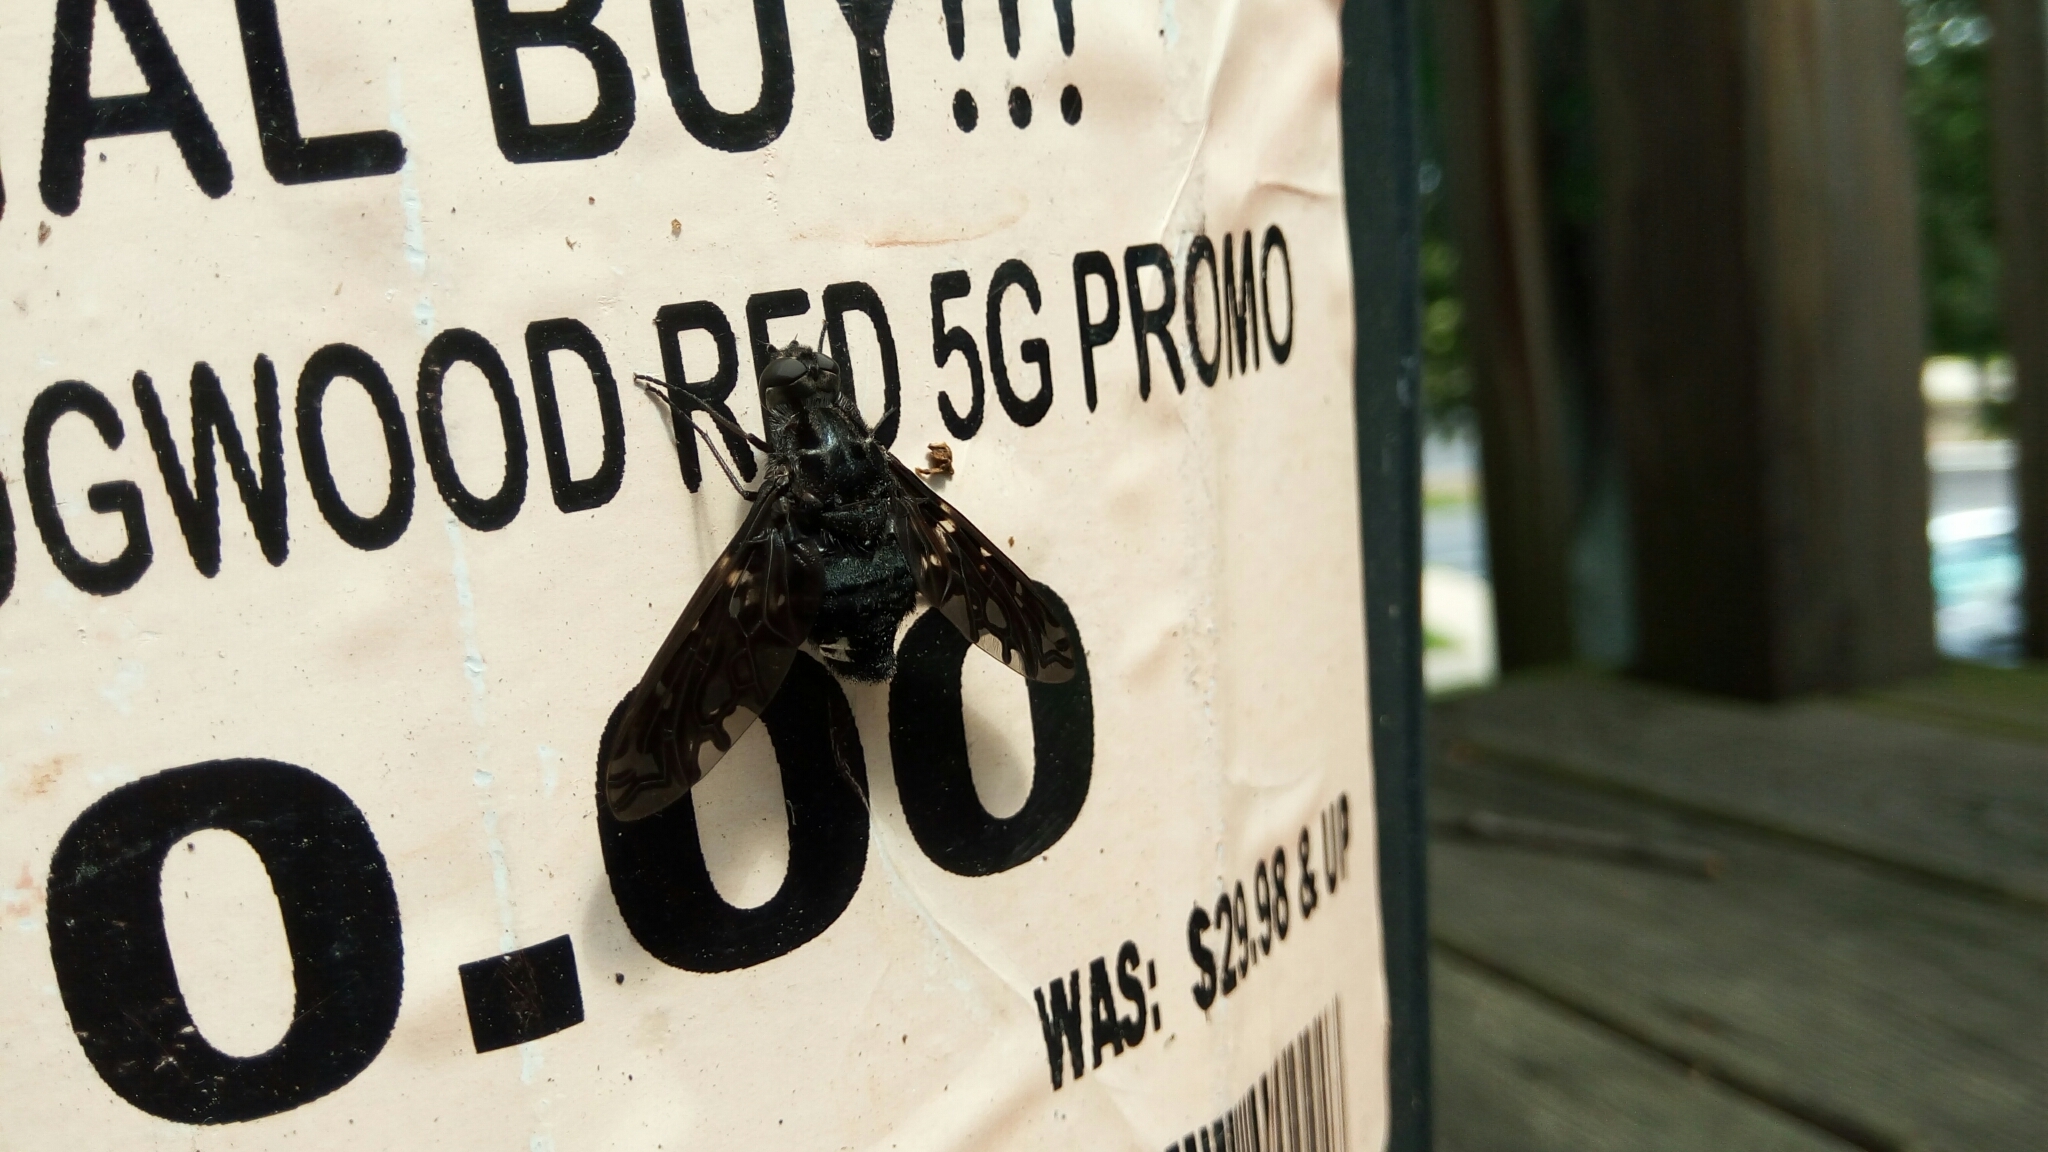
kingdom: Animalia
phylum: Arthropoda
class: Insecta
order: Diptera
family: Bombyliidae
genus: Xenox
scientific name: Xenox tigrinus
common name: Tiger bee fly
